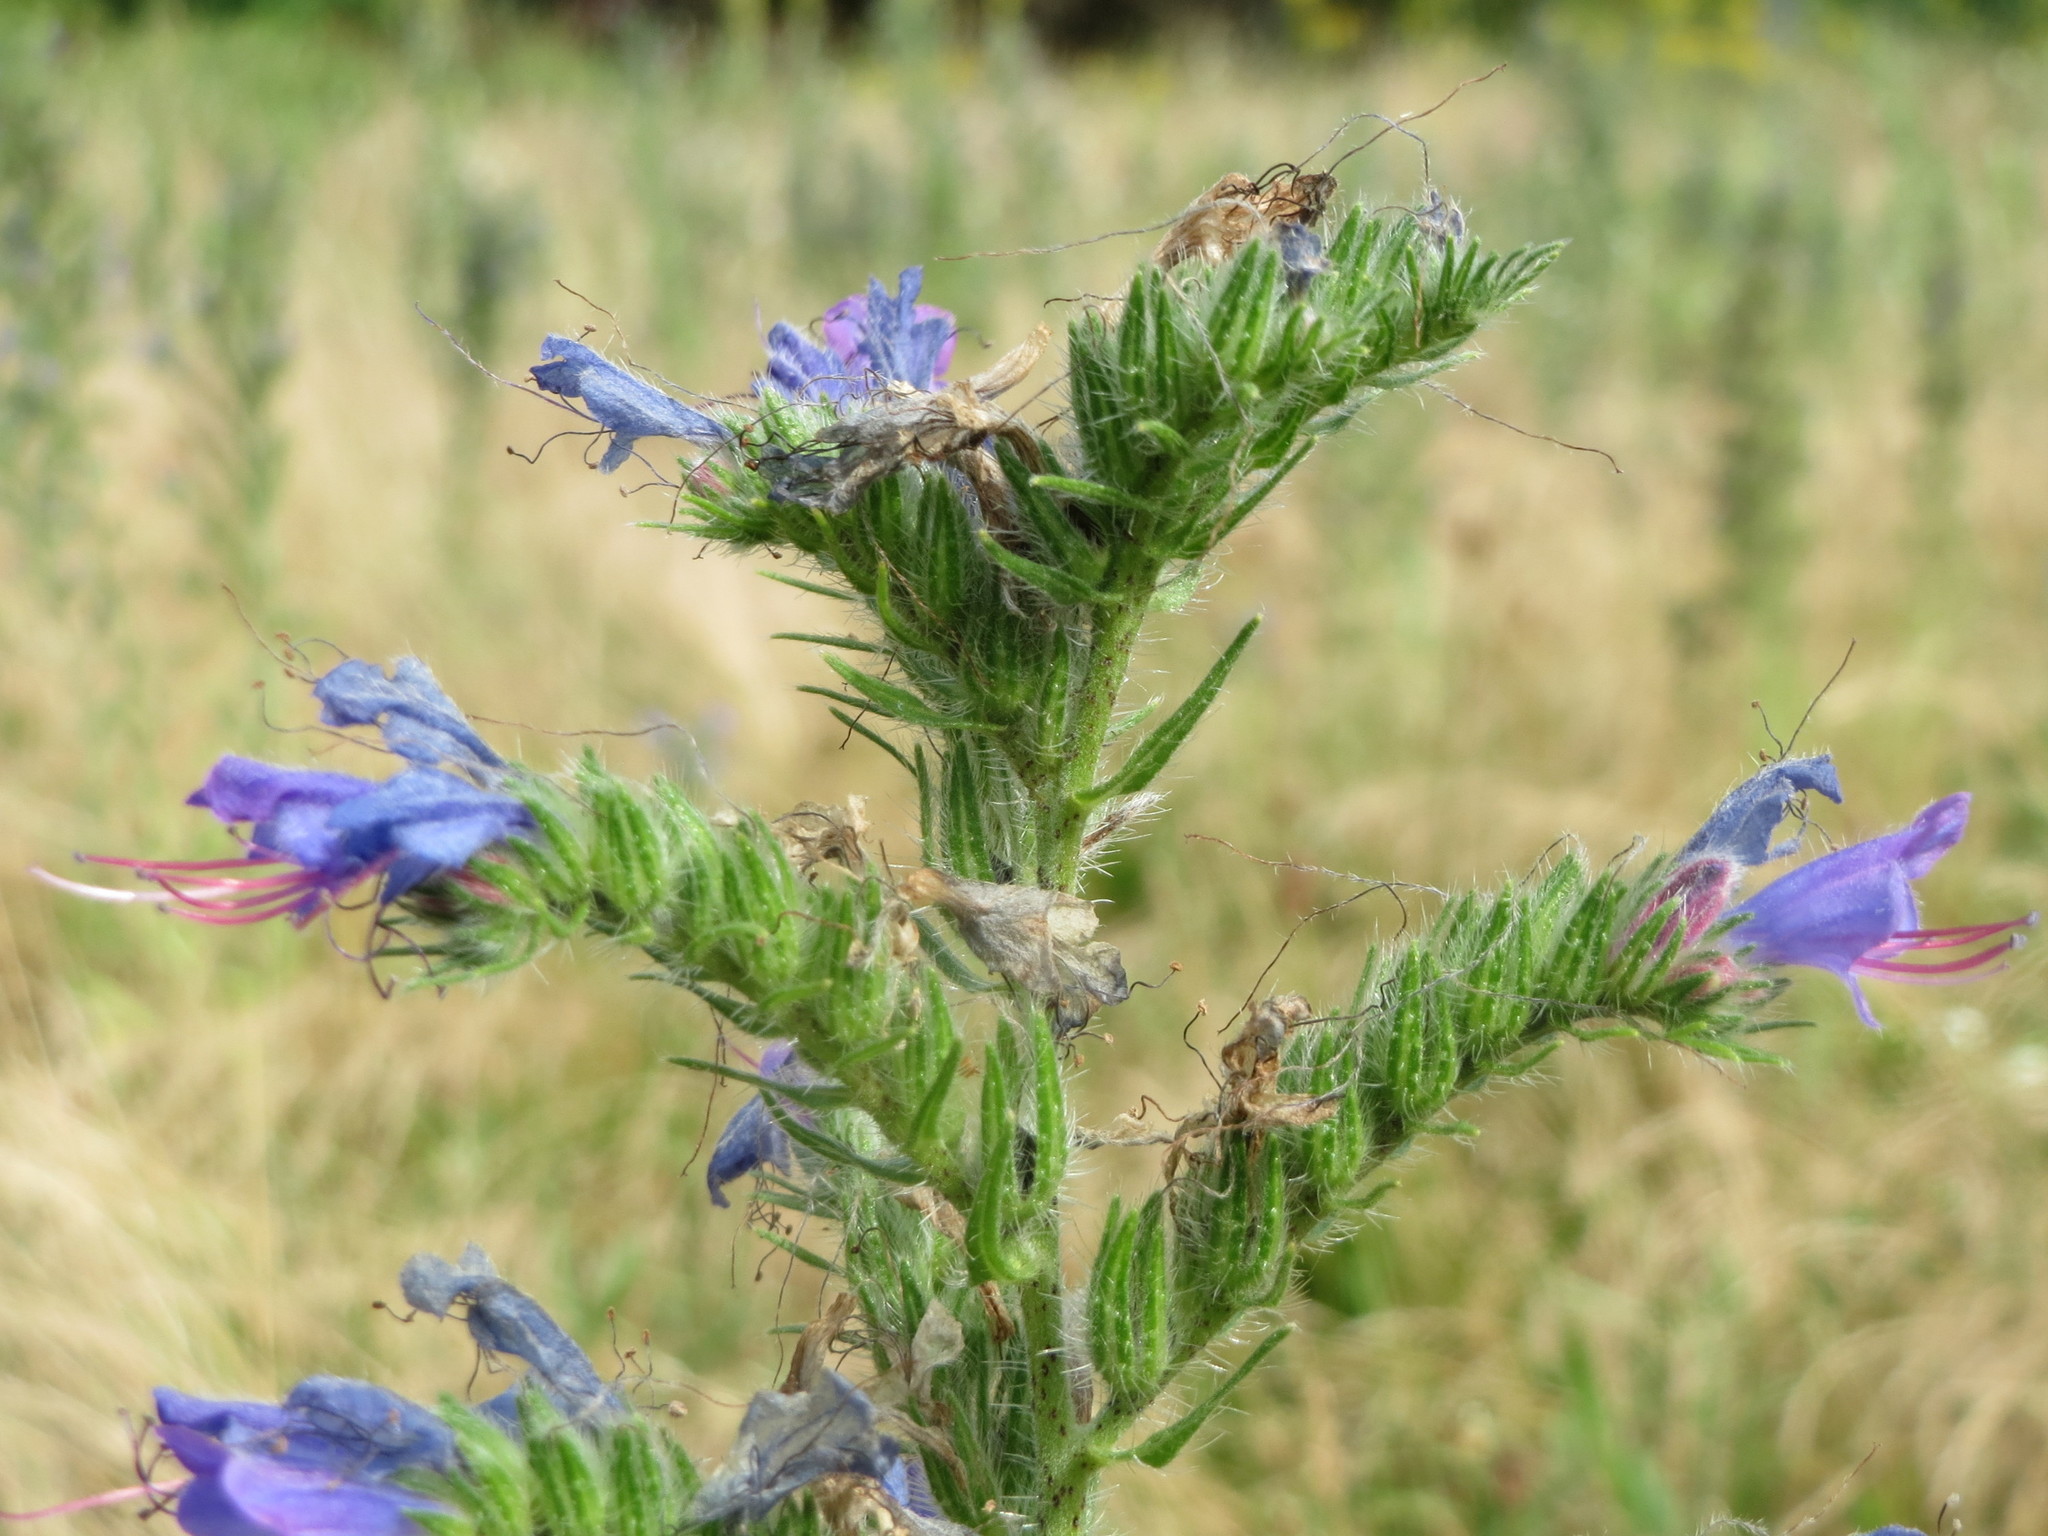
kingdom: Plantae
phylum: Tracheophyta
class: Magnoliopsida
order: Boraginales
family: Boraginaceae
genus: Echium
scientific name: Echium vulgare
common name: Common viper's bugloss
